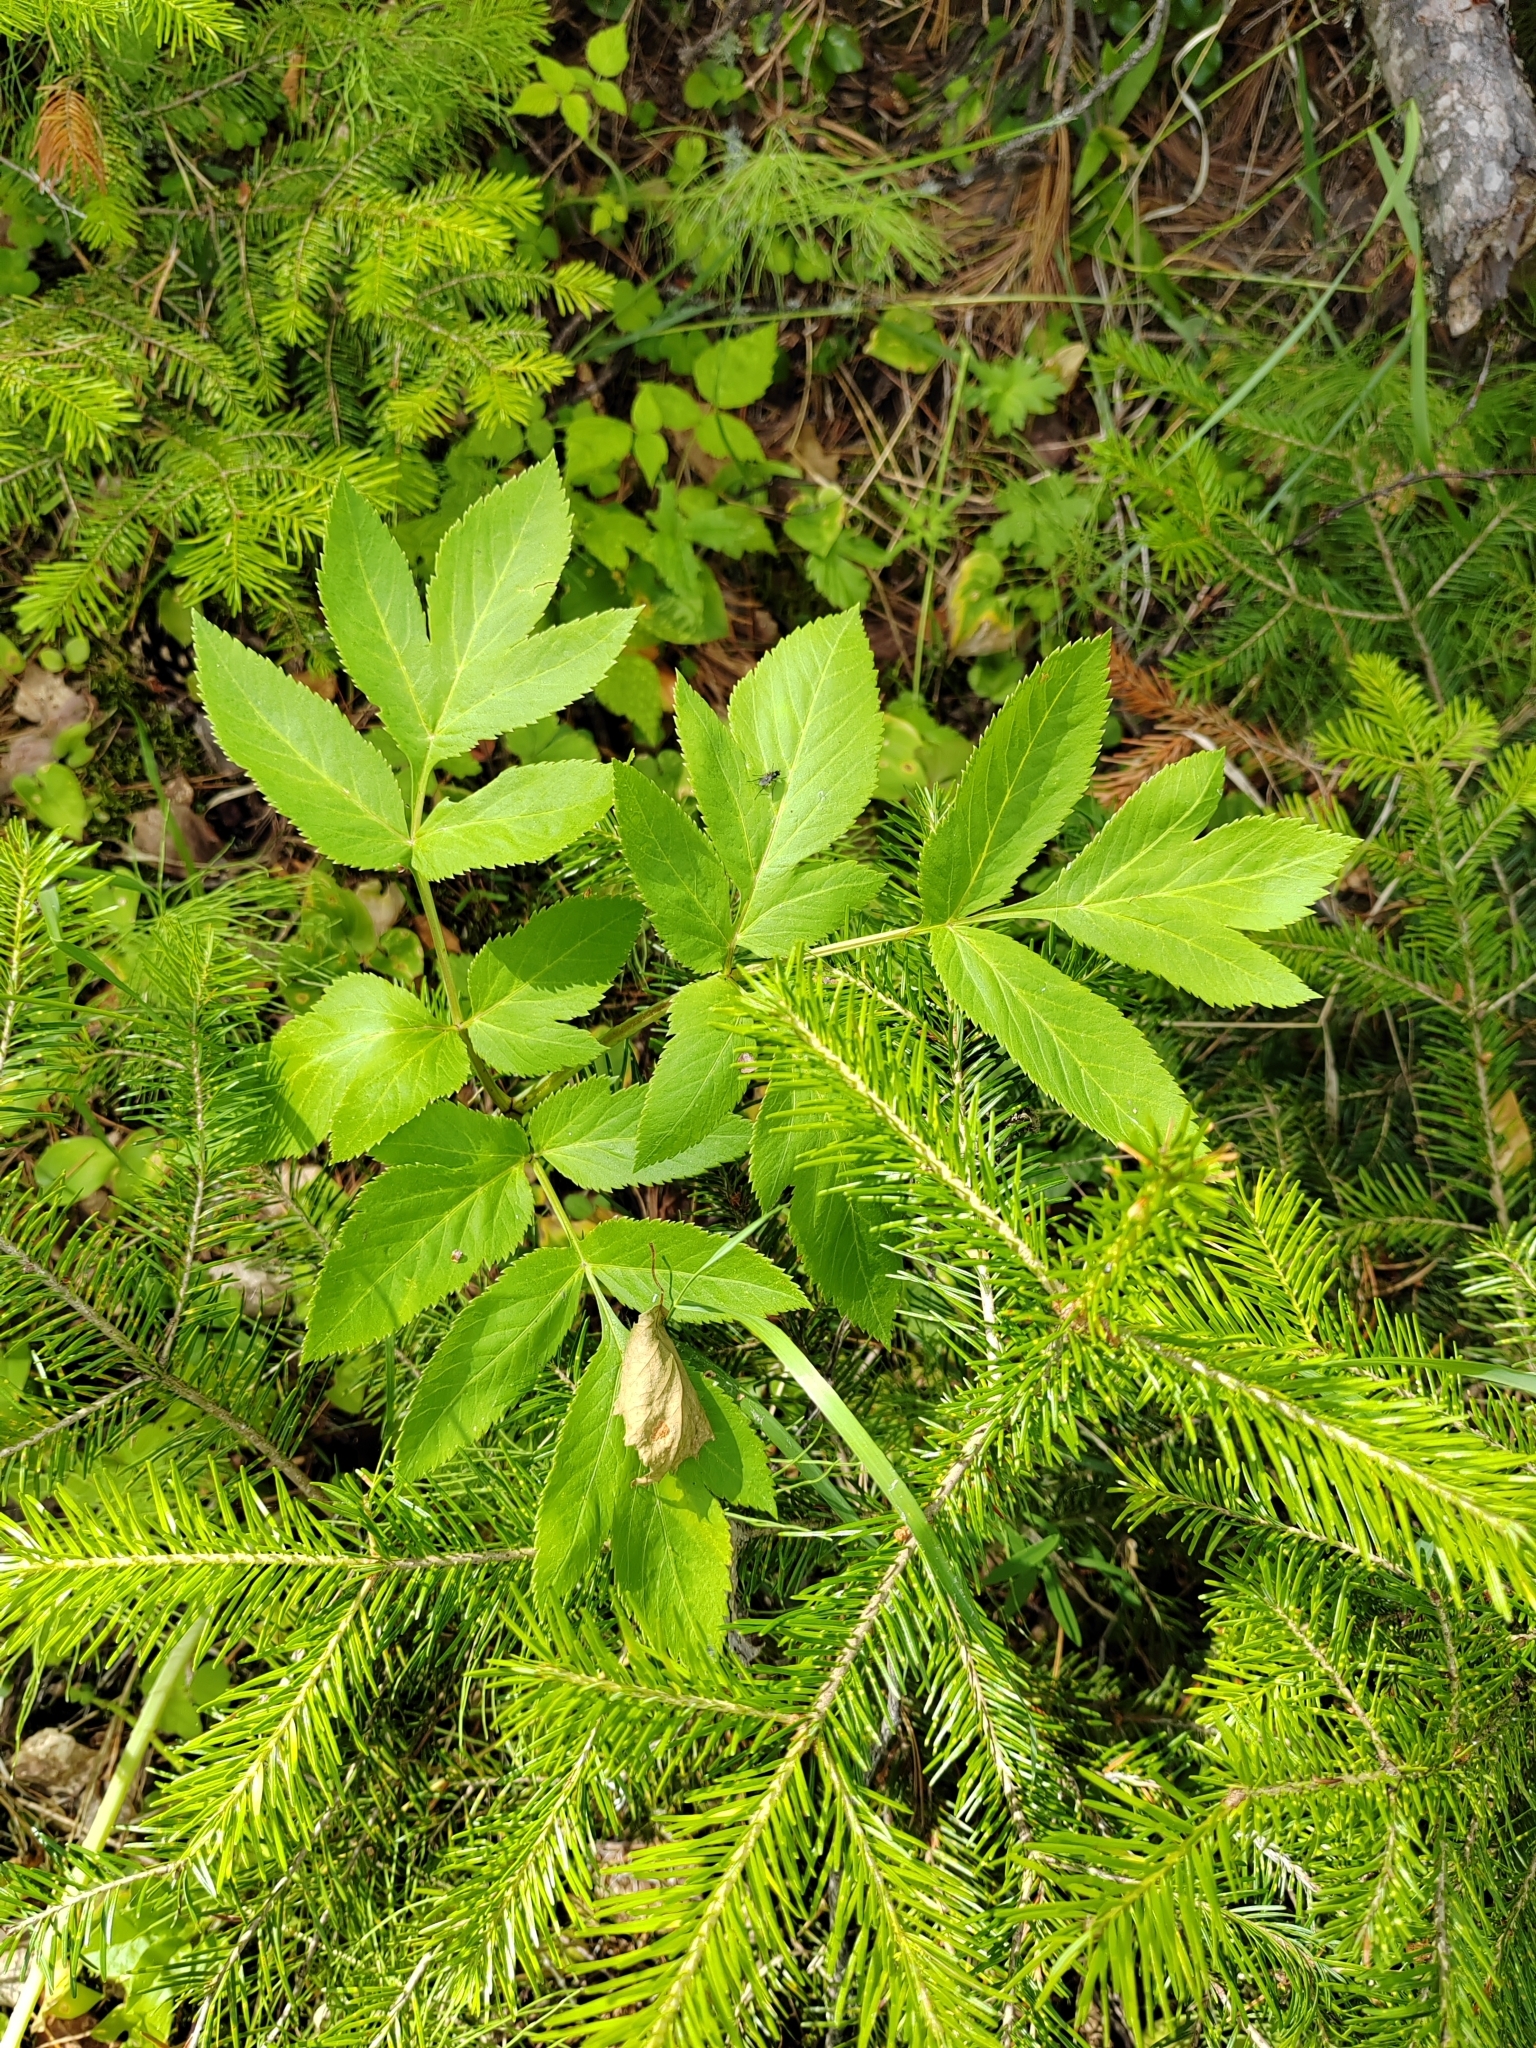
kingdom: Plantae
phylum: Tracheophyta
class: Magnoliopsida
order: Apiales
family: Apiaceae
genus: Angelica
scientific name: Angelica sylvestris
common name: Wild angelica
